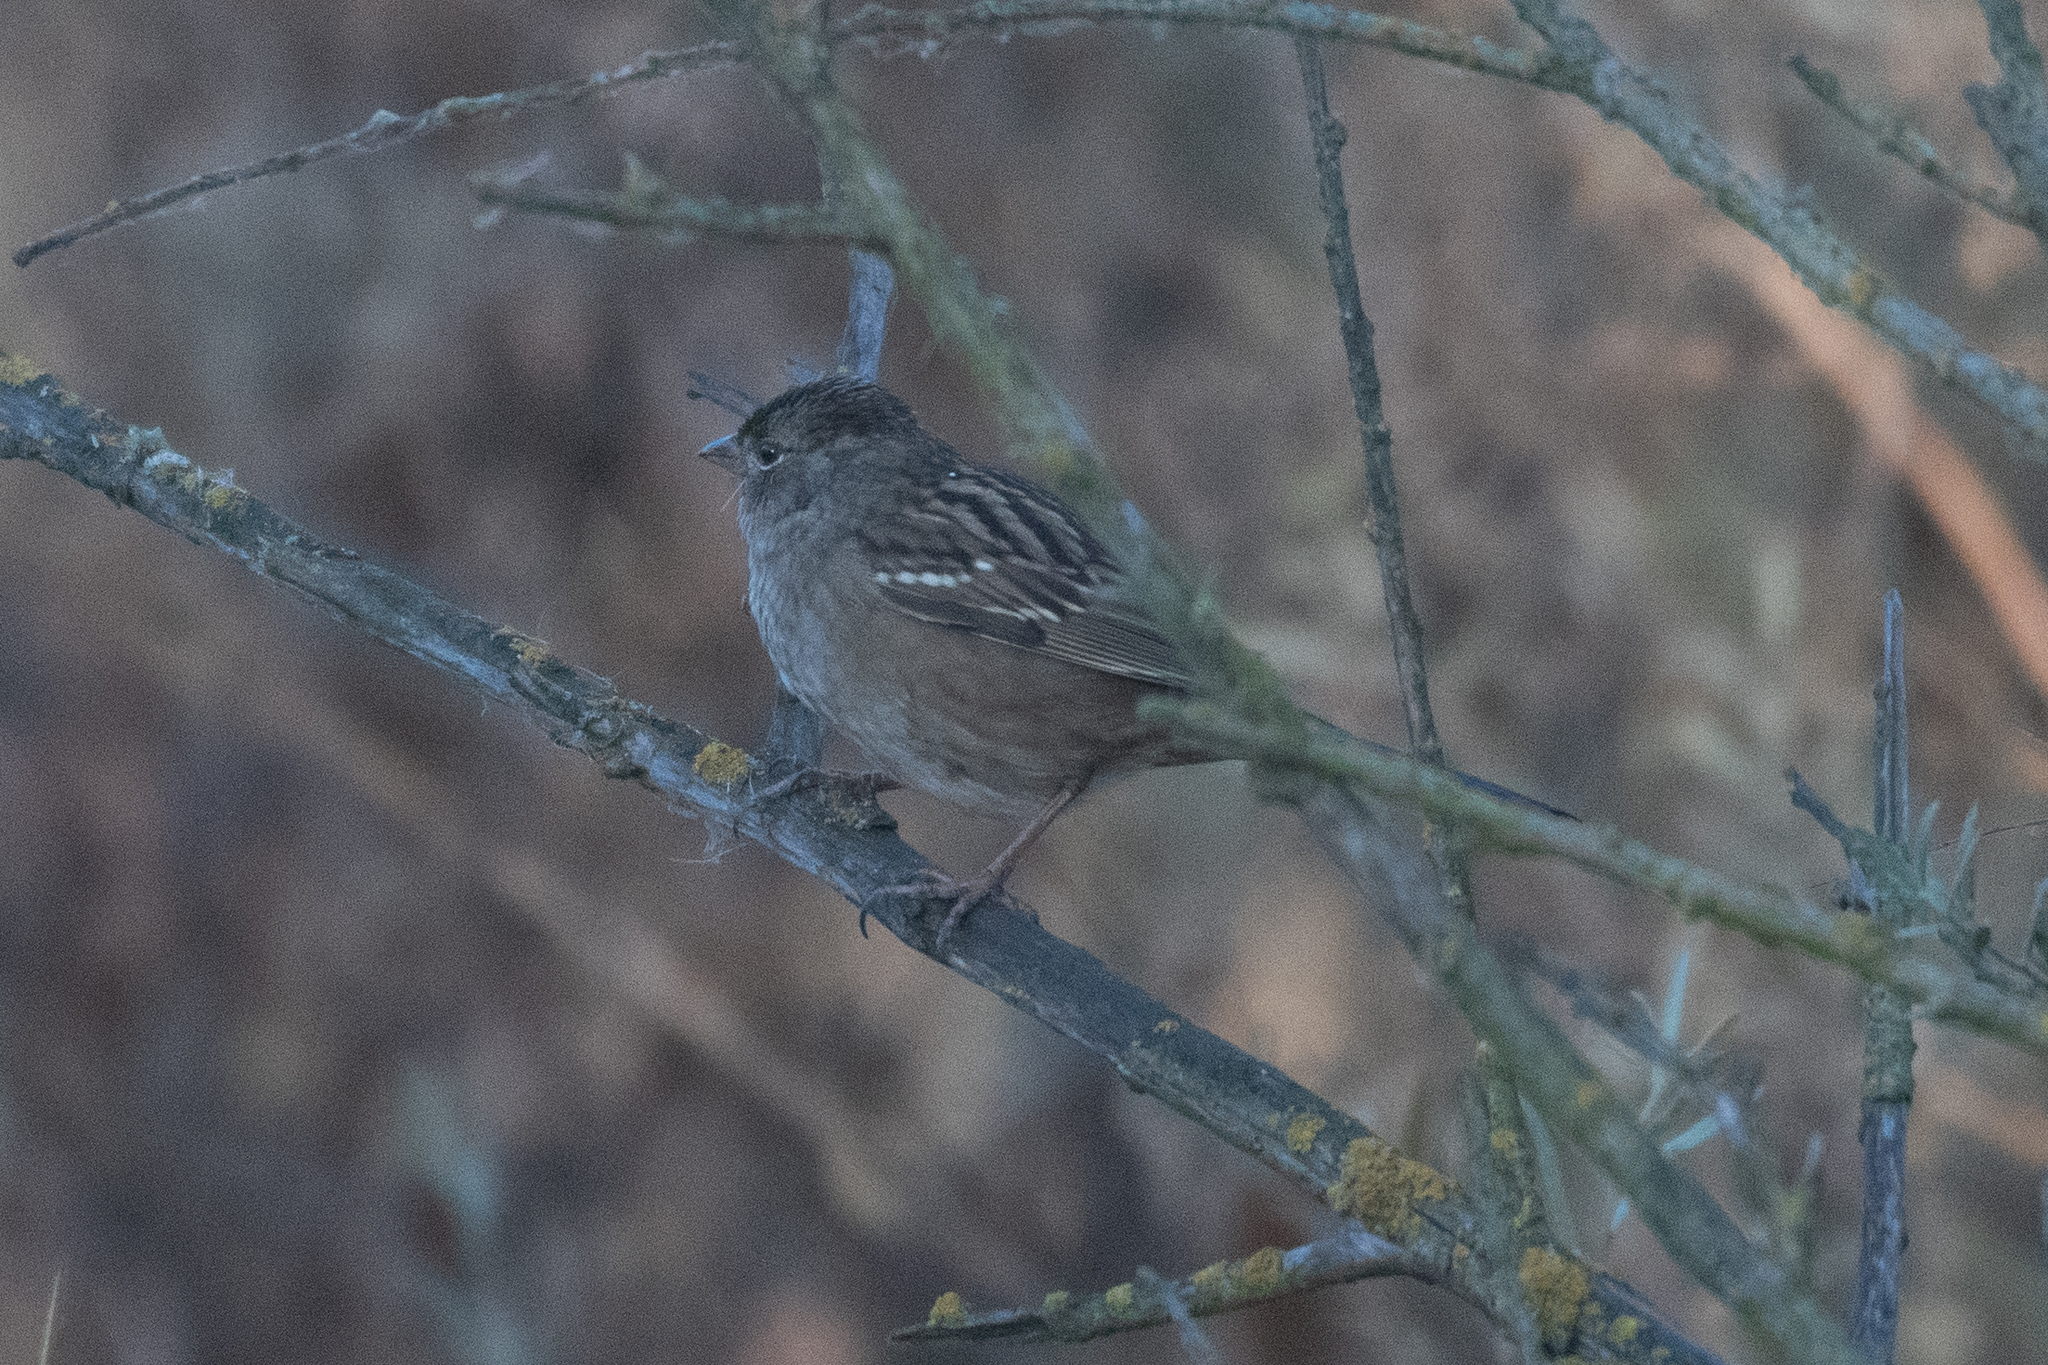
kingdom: Animalia
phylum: Chordata
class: Aves
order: Passeriformes
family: Passerellidae
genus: Zonotrichia
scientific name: Zonotrichia atricapilla
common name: Golden-crowned sparrow
